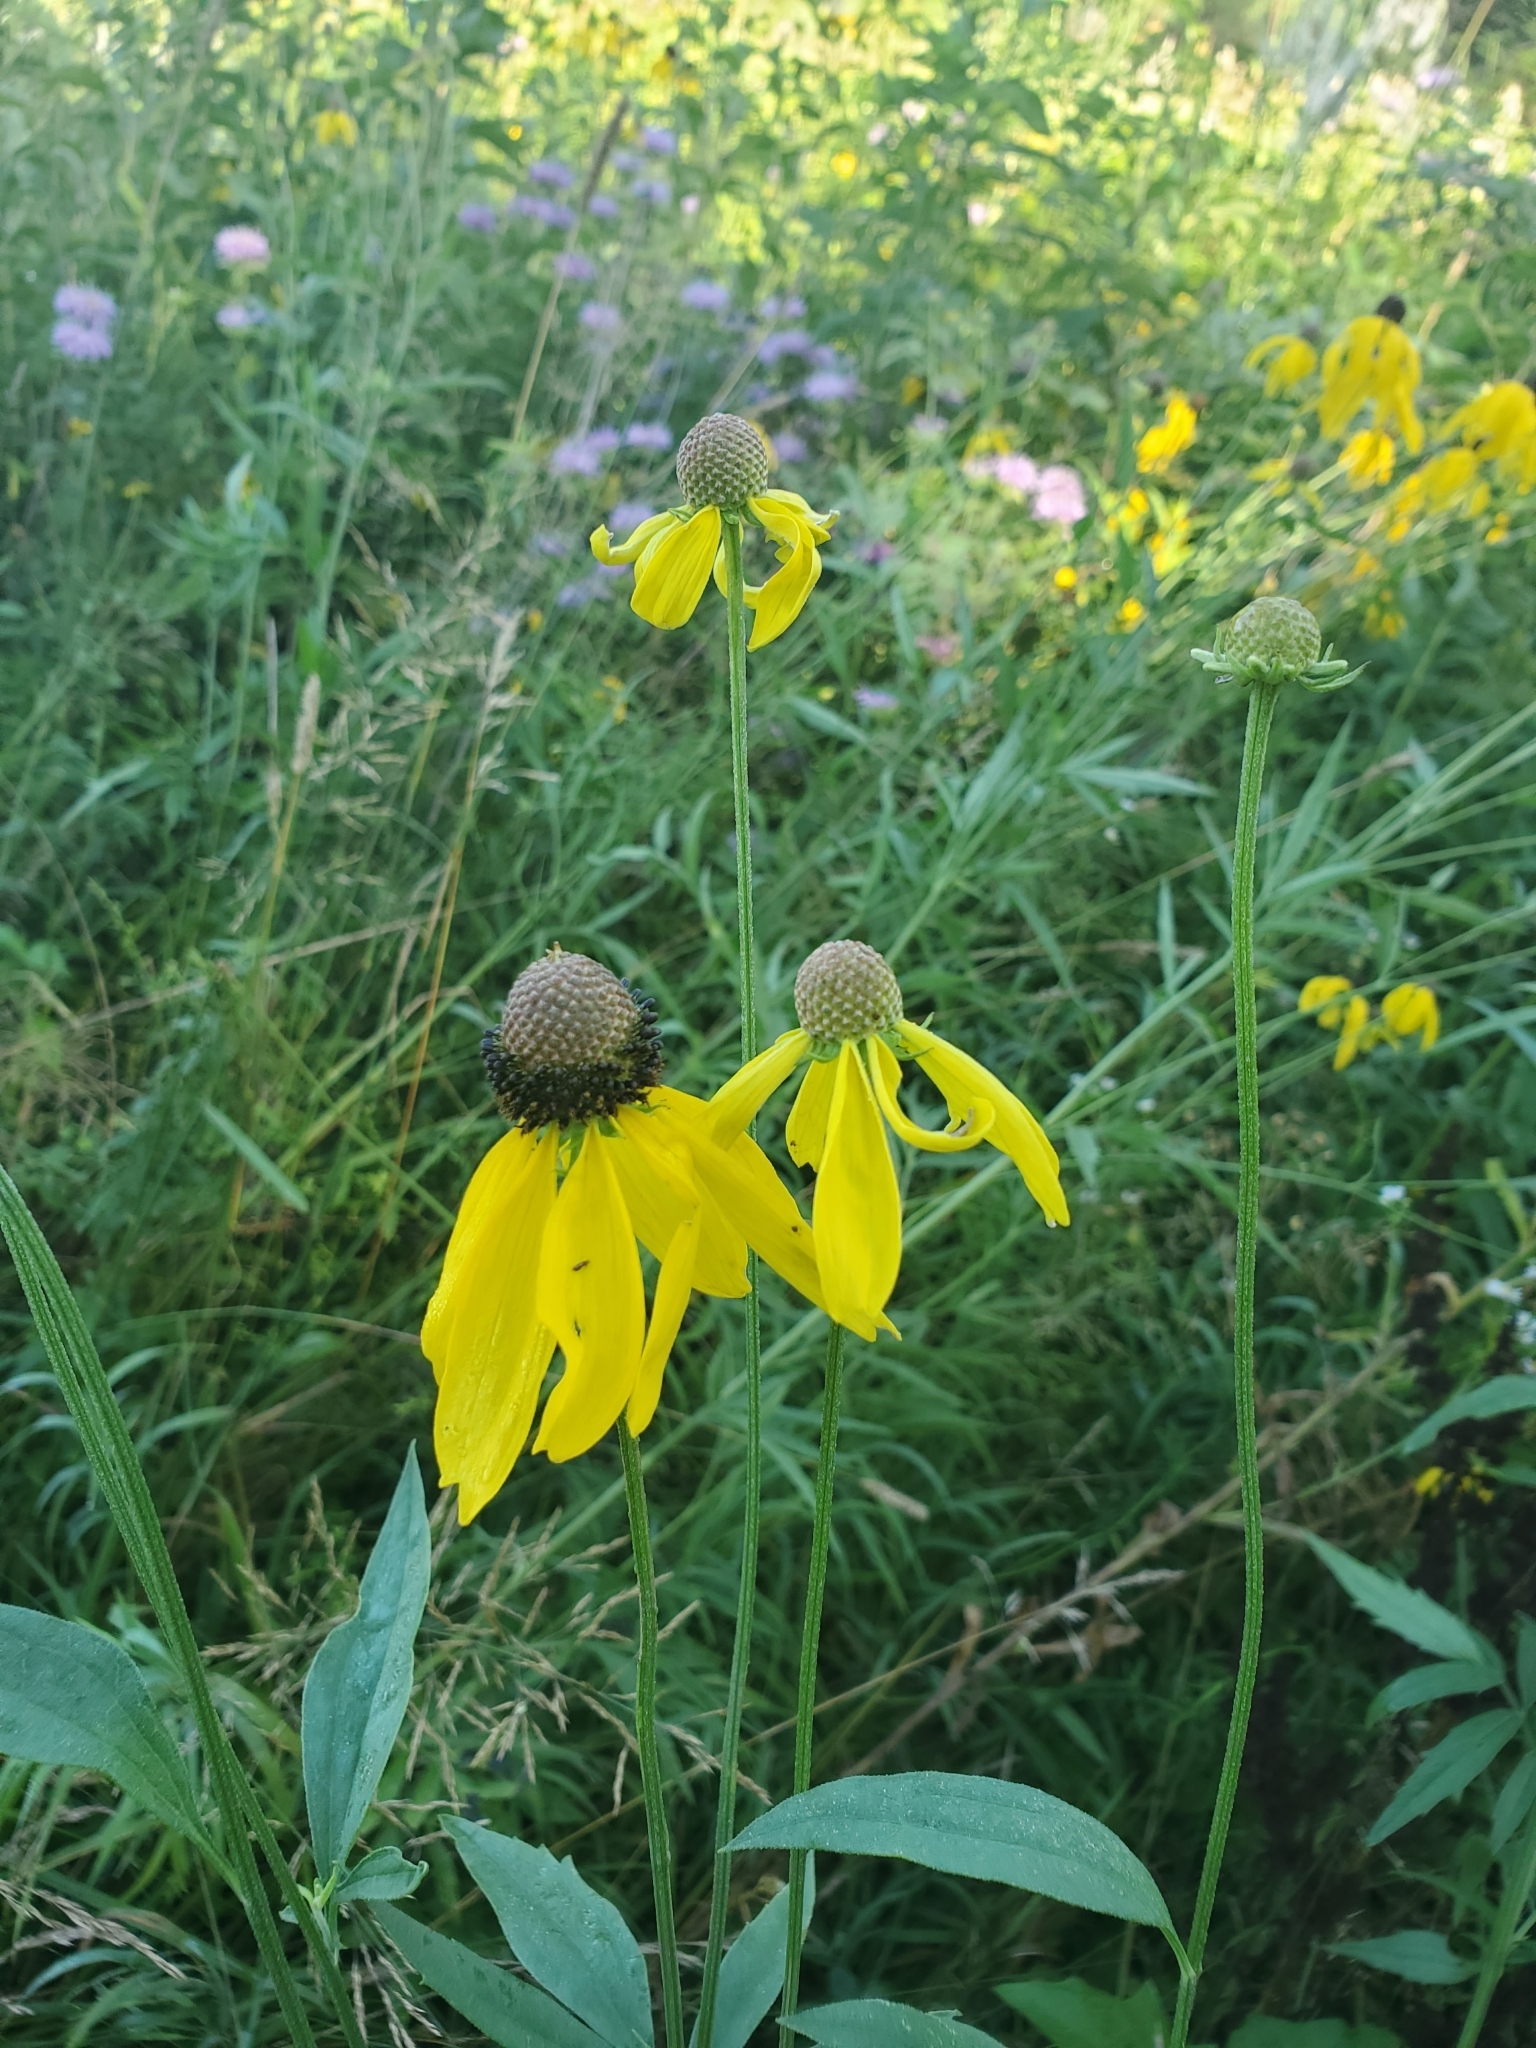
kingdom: Plantae
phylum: Tracheophyta
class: Magnoliopsida
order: Asterales
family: Asteraceae
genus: Ratibida
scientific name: Ratibida pinnata
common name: Drooping prairie-coneflower
